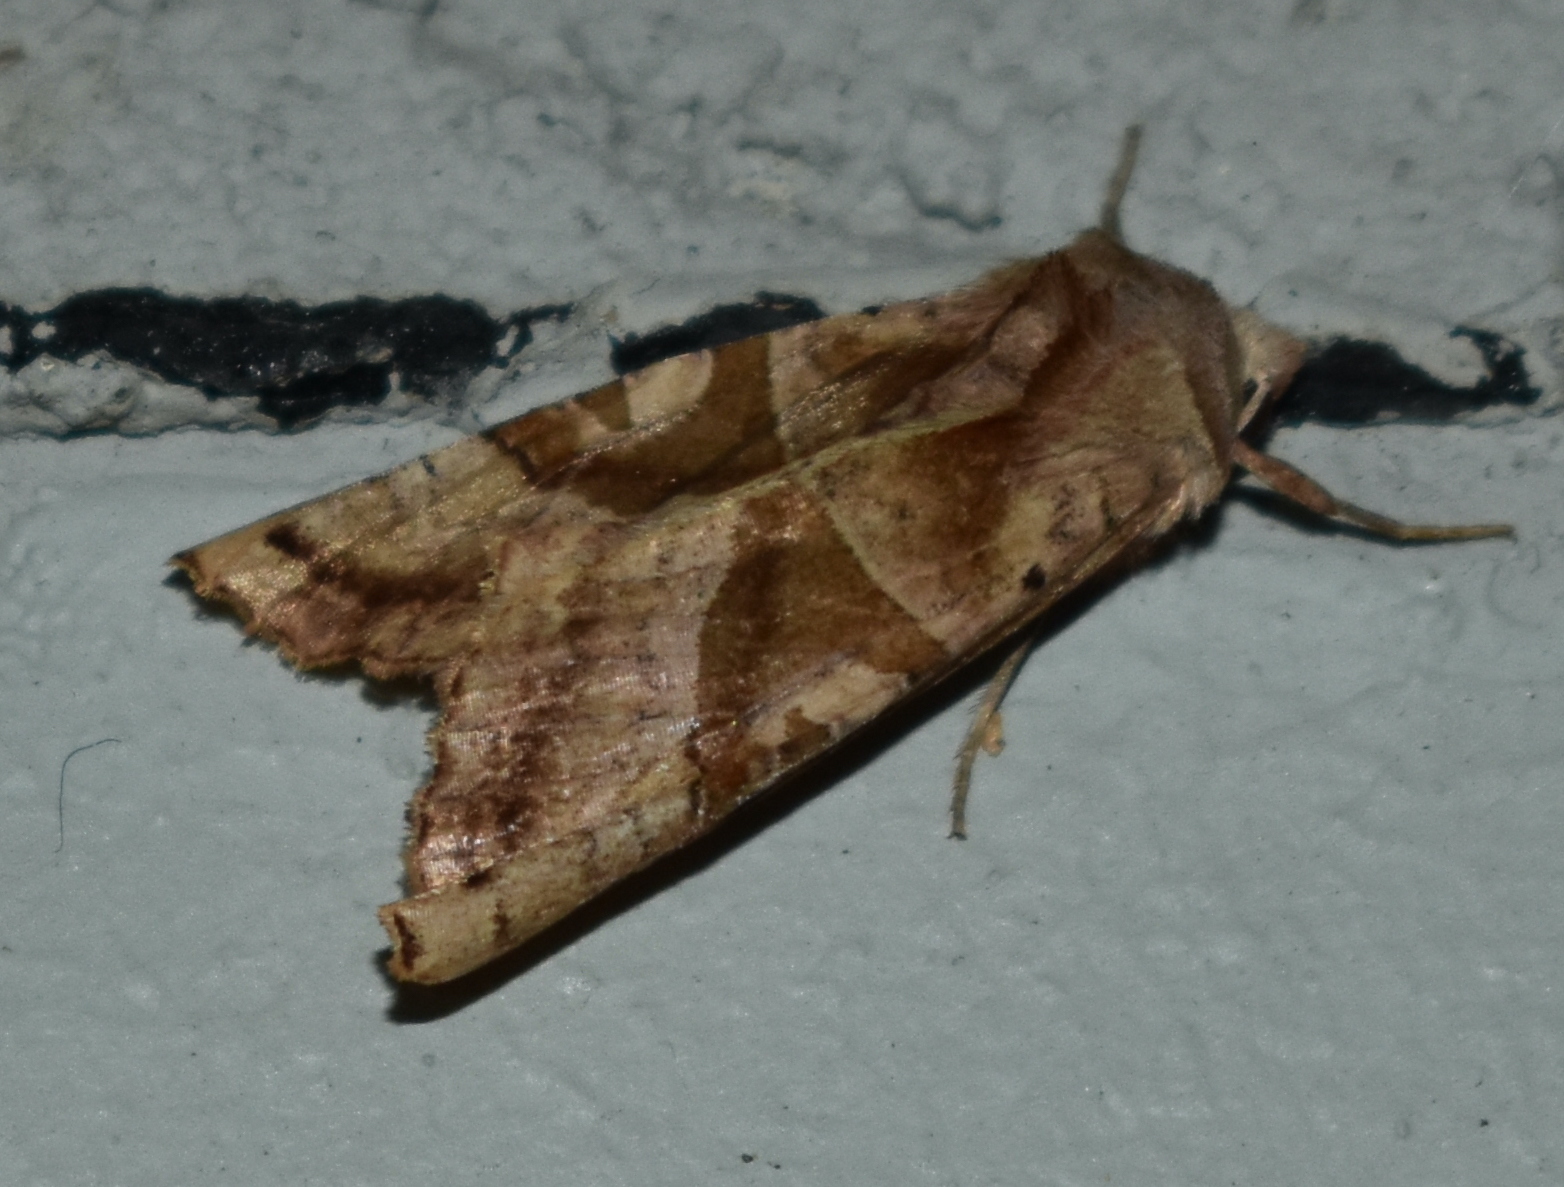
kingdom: Animalia
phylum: Arthropoda
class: Insecta
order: Lepidoptera
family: Noctuidae
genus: Phlogophora
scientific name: Phlogophora periculosa
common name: Brown angle shades
